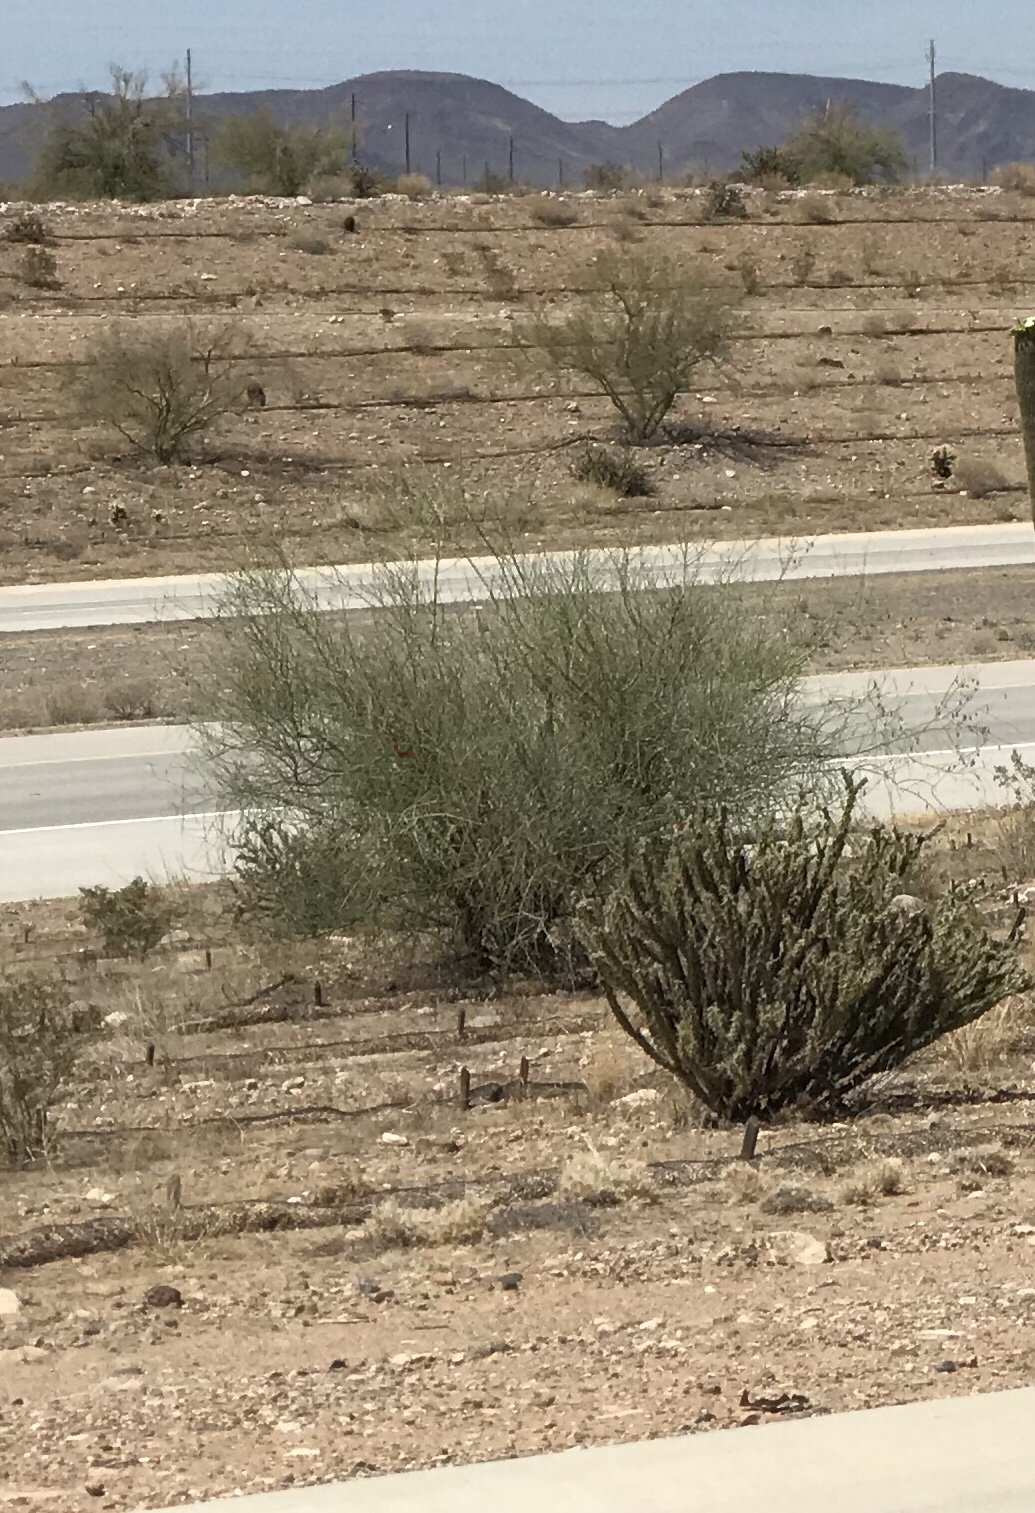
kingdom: Plantae
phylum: Tracheophyta
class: Magnoliopsida
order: Fabales
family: Fabaceae
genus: Parkinsonia
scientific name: Parkinsonia florida
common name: Blue paloverde
